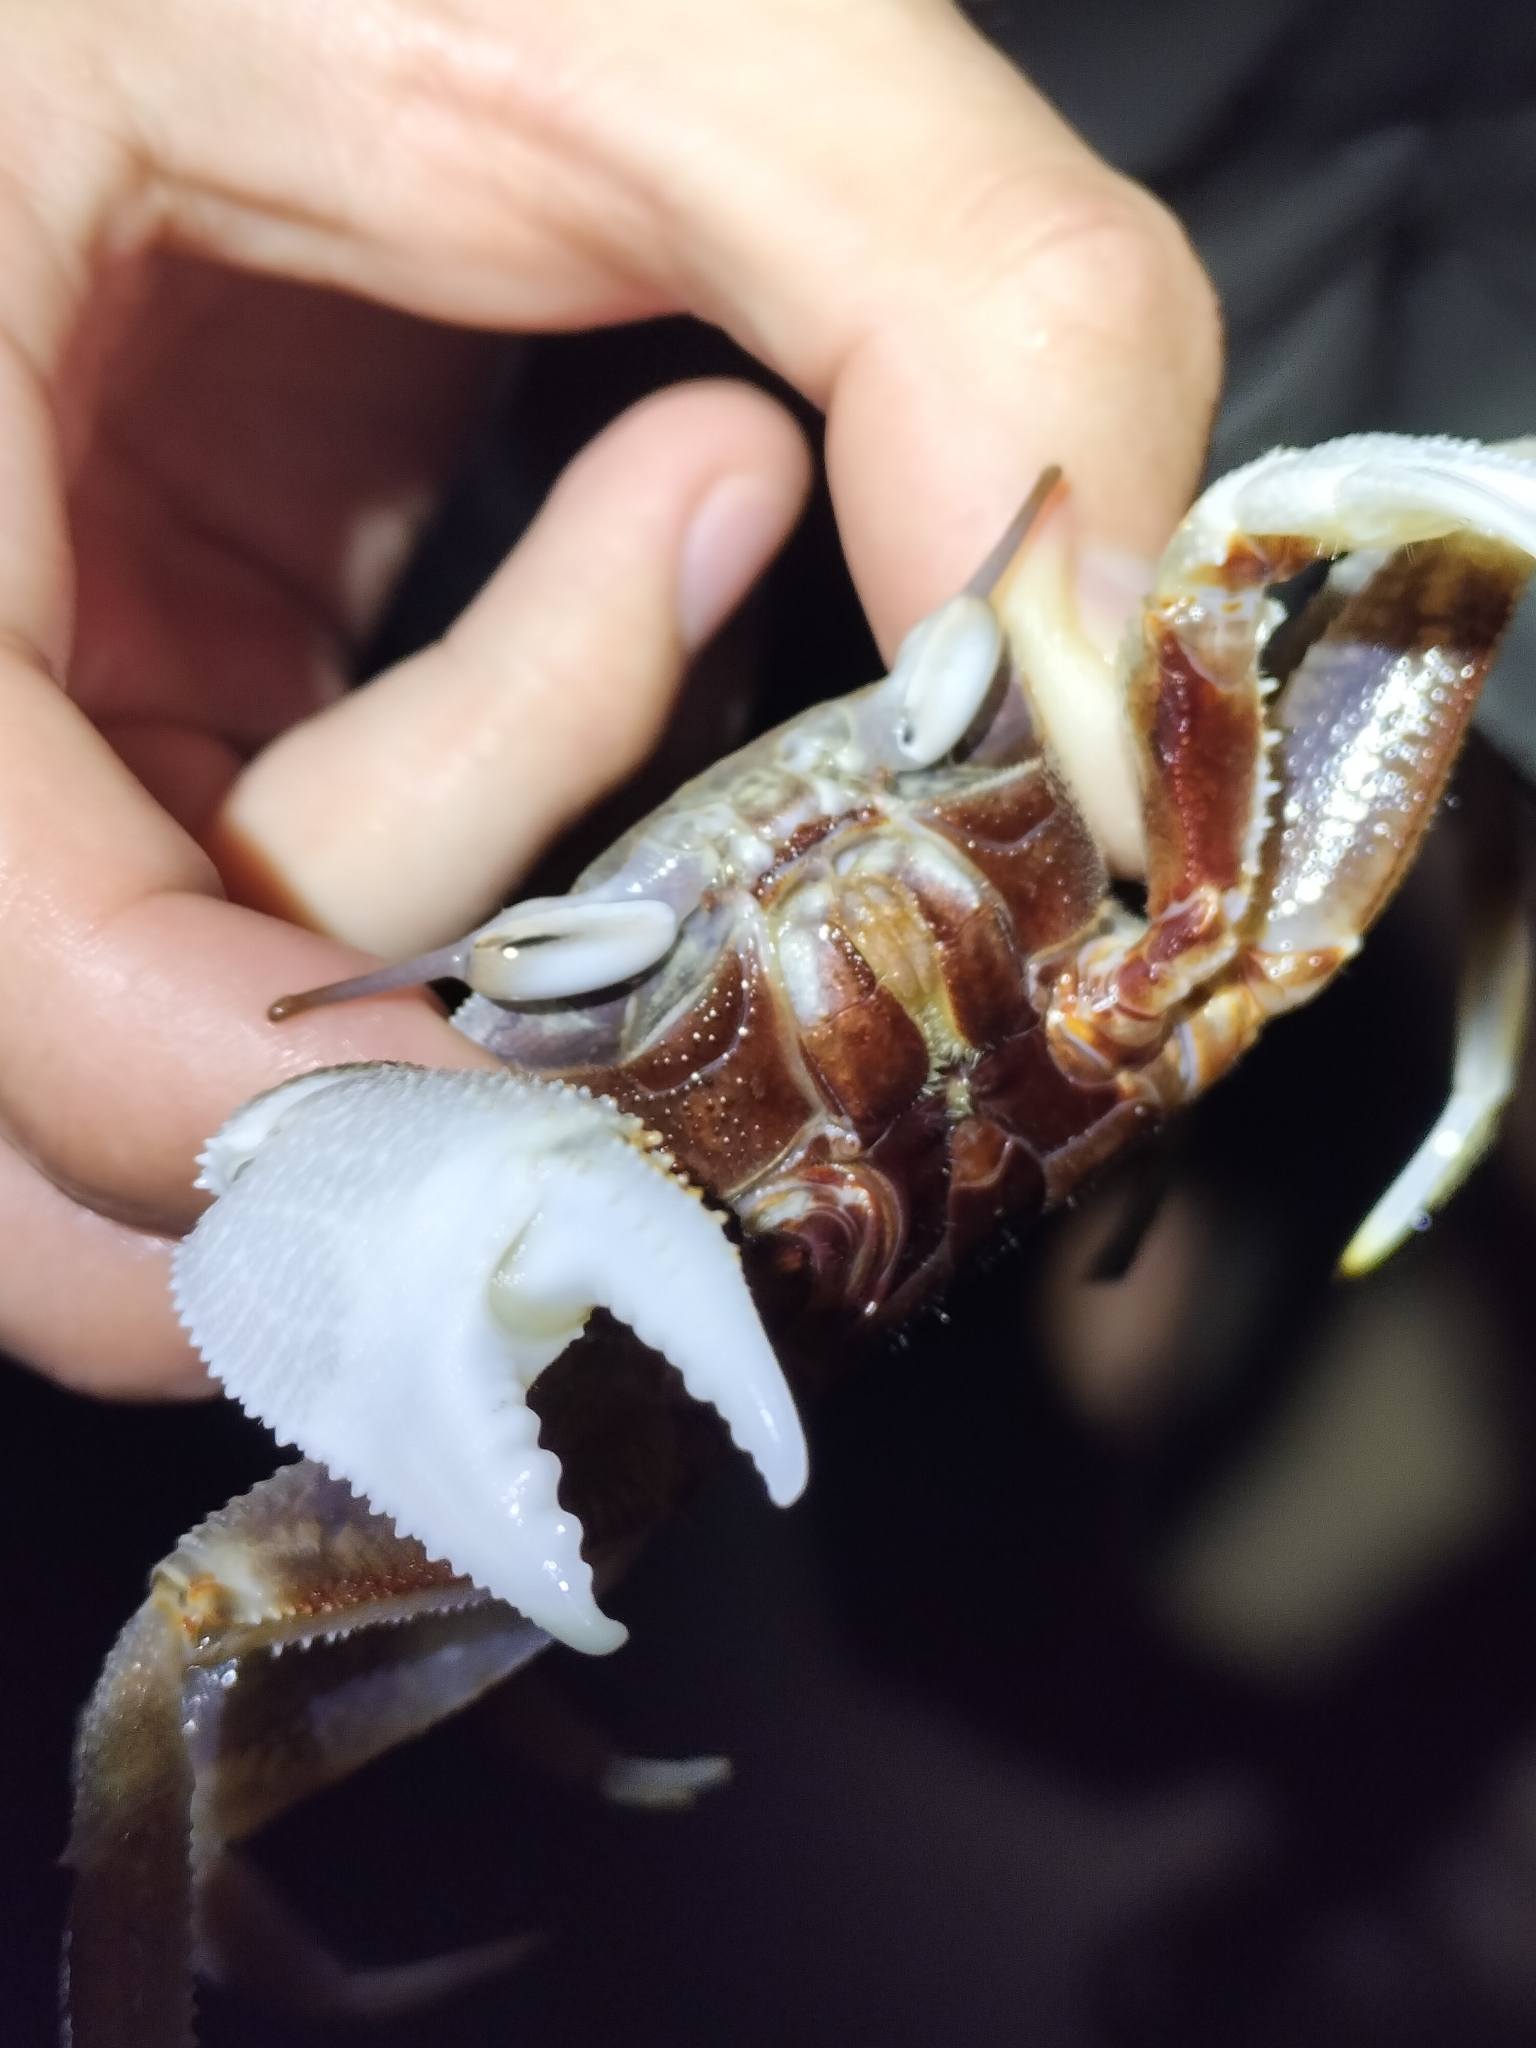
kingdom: Animalia
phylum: Arthropoda
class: Malacostraca
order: Decapoda
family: Ocypodidae
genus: Ocypode
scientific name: Ocypode ceratophthalmus
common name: Indo-pacific ghost crab
